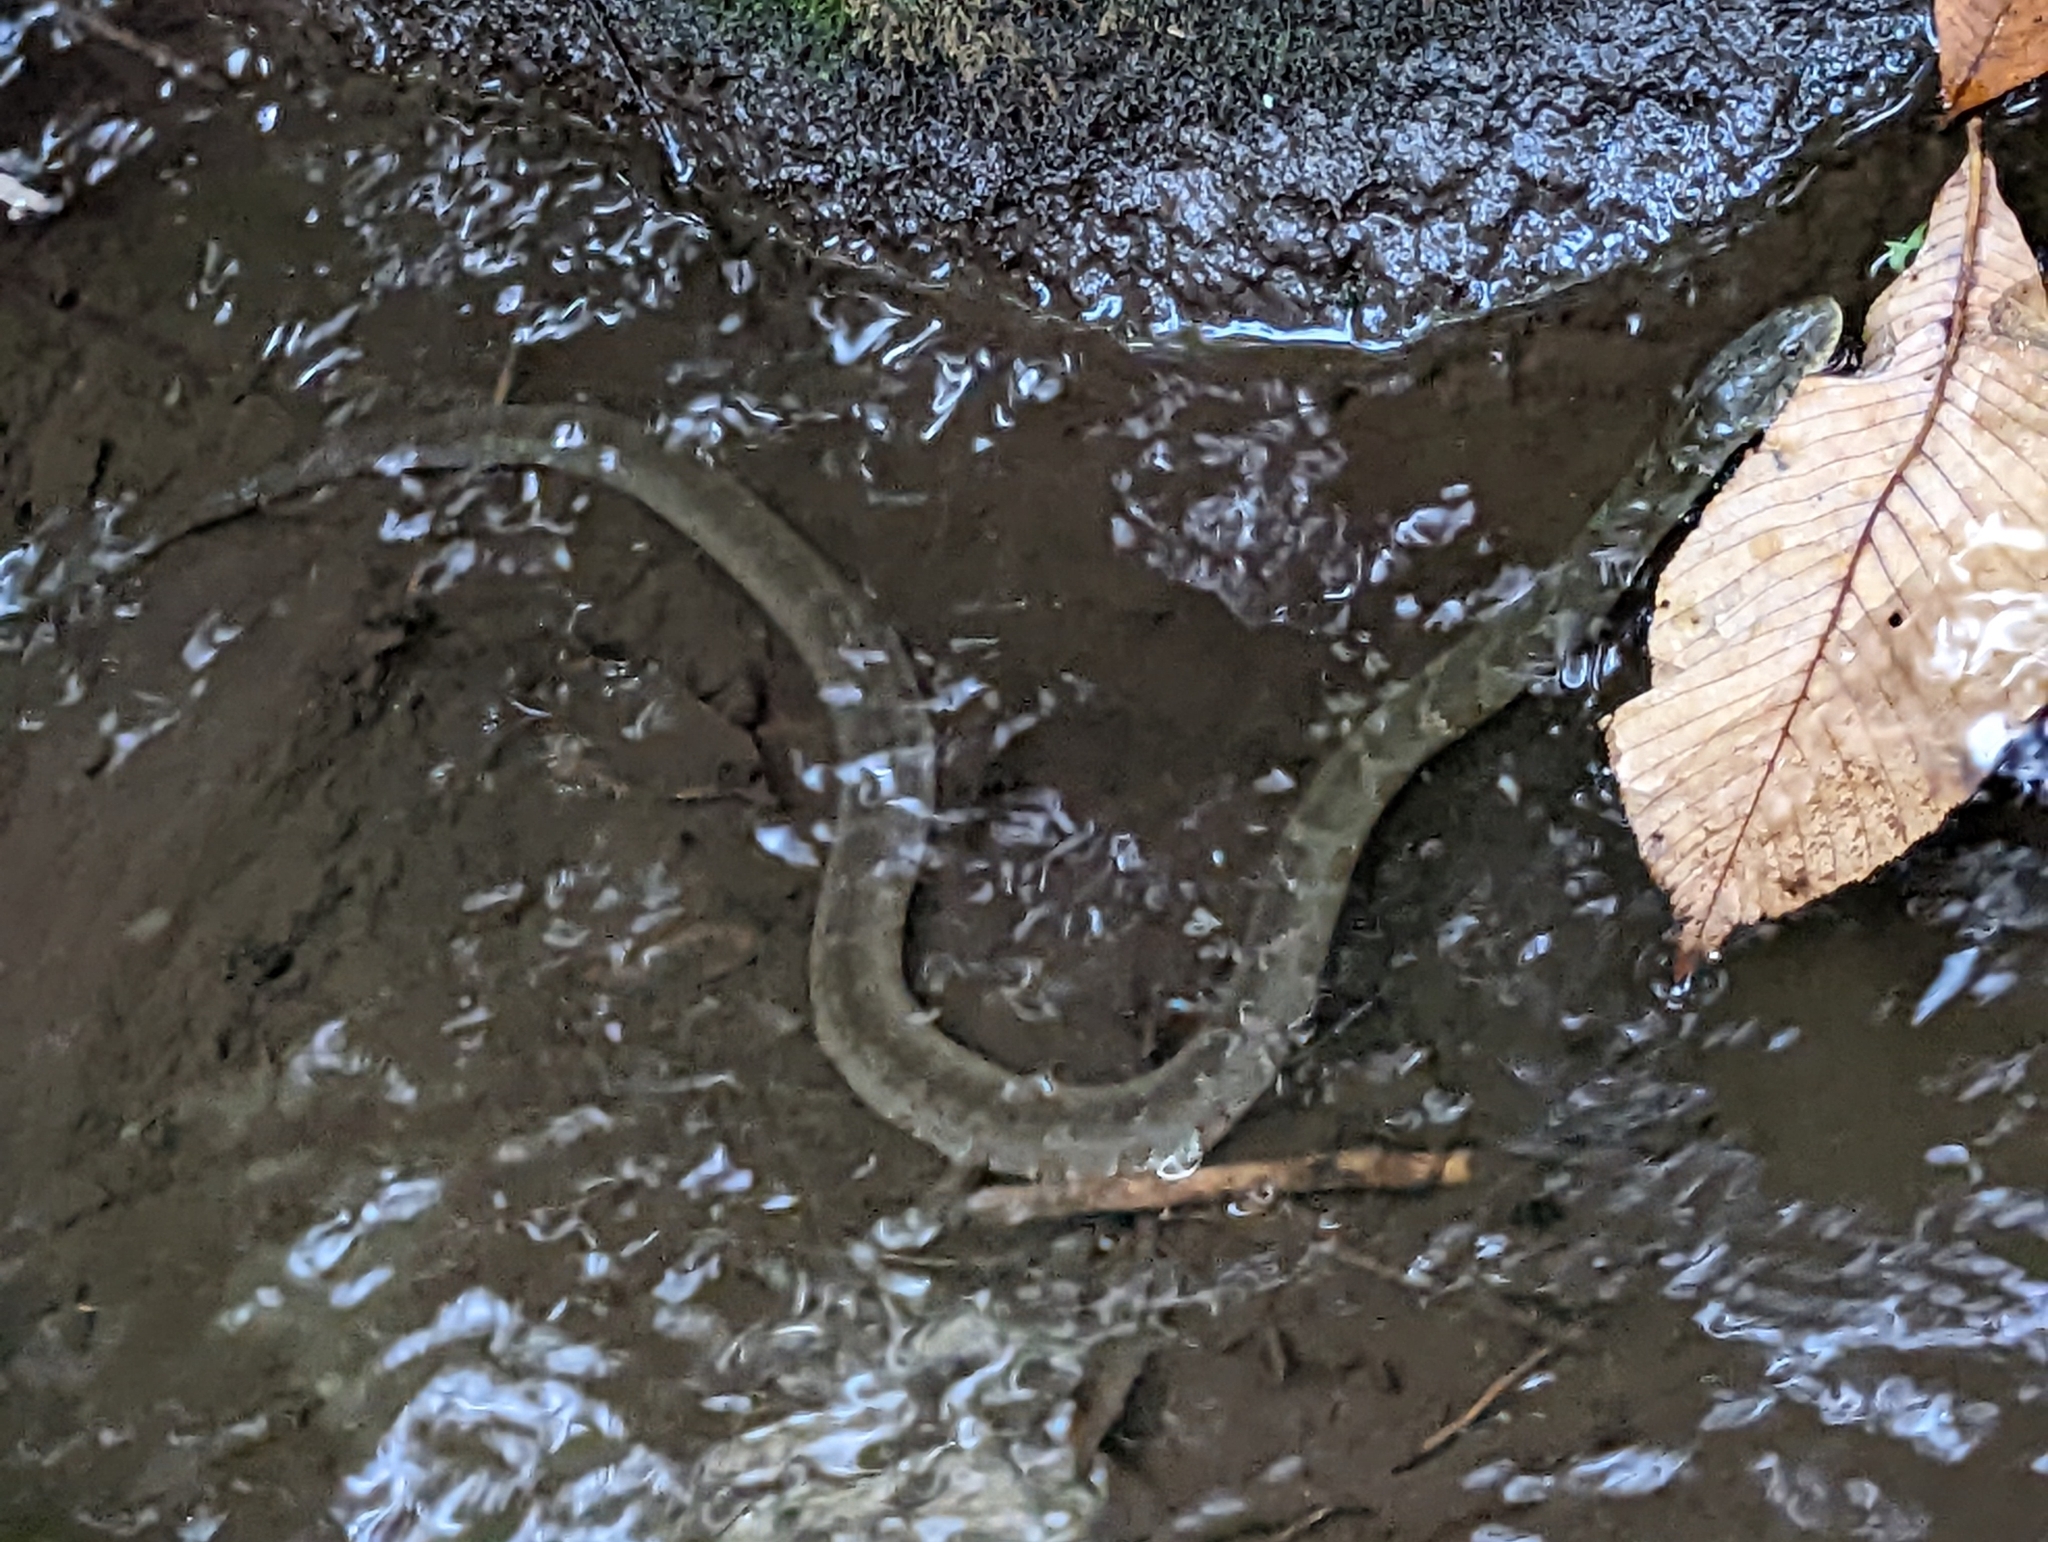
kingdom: Animalia
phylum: Chordata
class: Squamata
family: Colubridae
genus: Nerodia
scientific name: Nerodia sipedon
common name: Northern water snake
